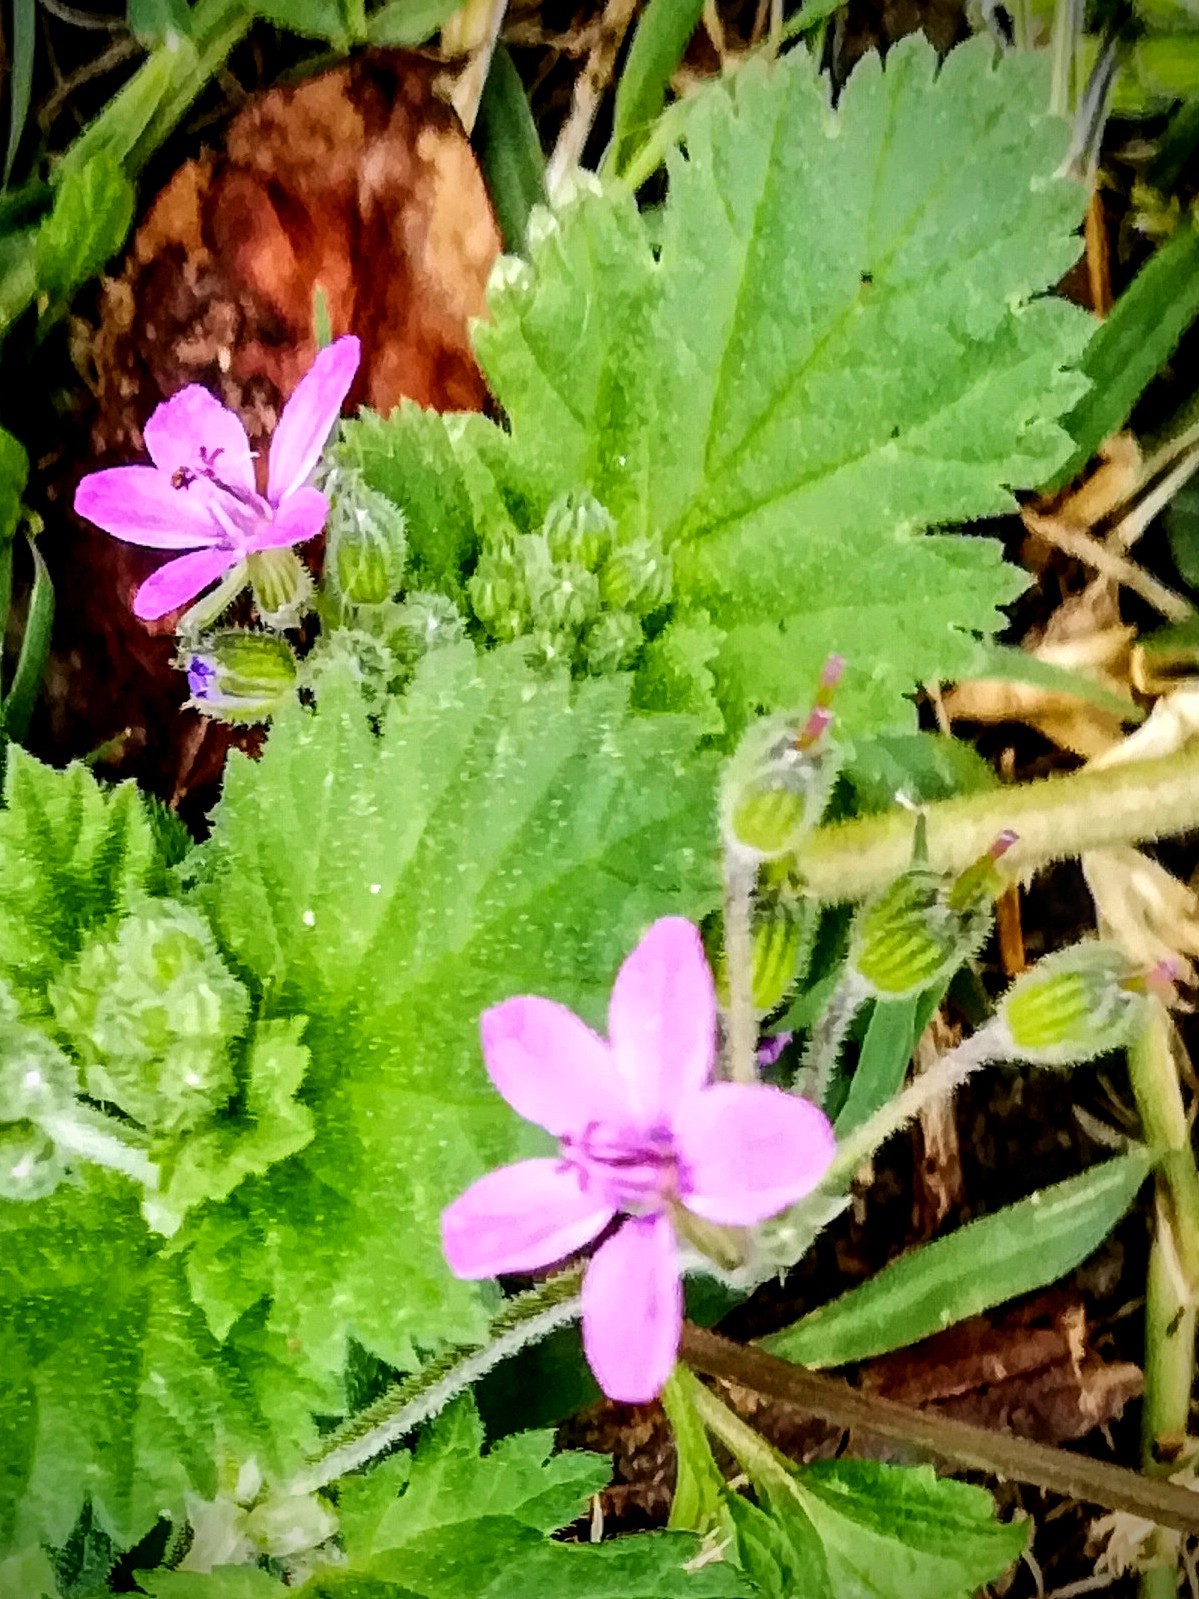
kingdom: Plantae
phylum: Tracheophyta
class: Magnoliopsida
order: Geraniales
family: Geraniaceae
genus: Erodium
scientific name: Erodium malacoides
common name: Soft stork's-bill
